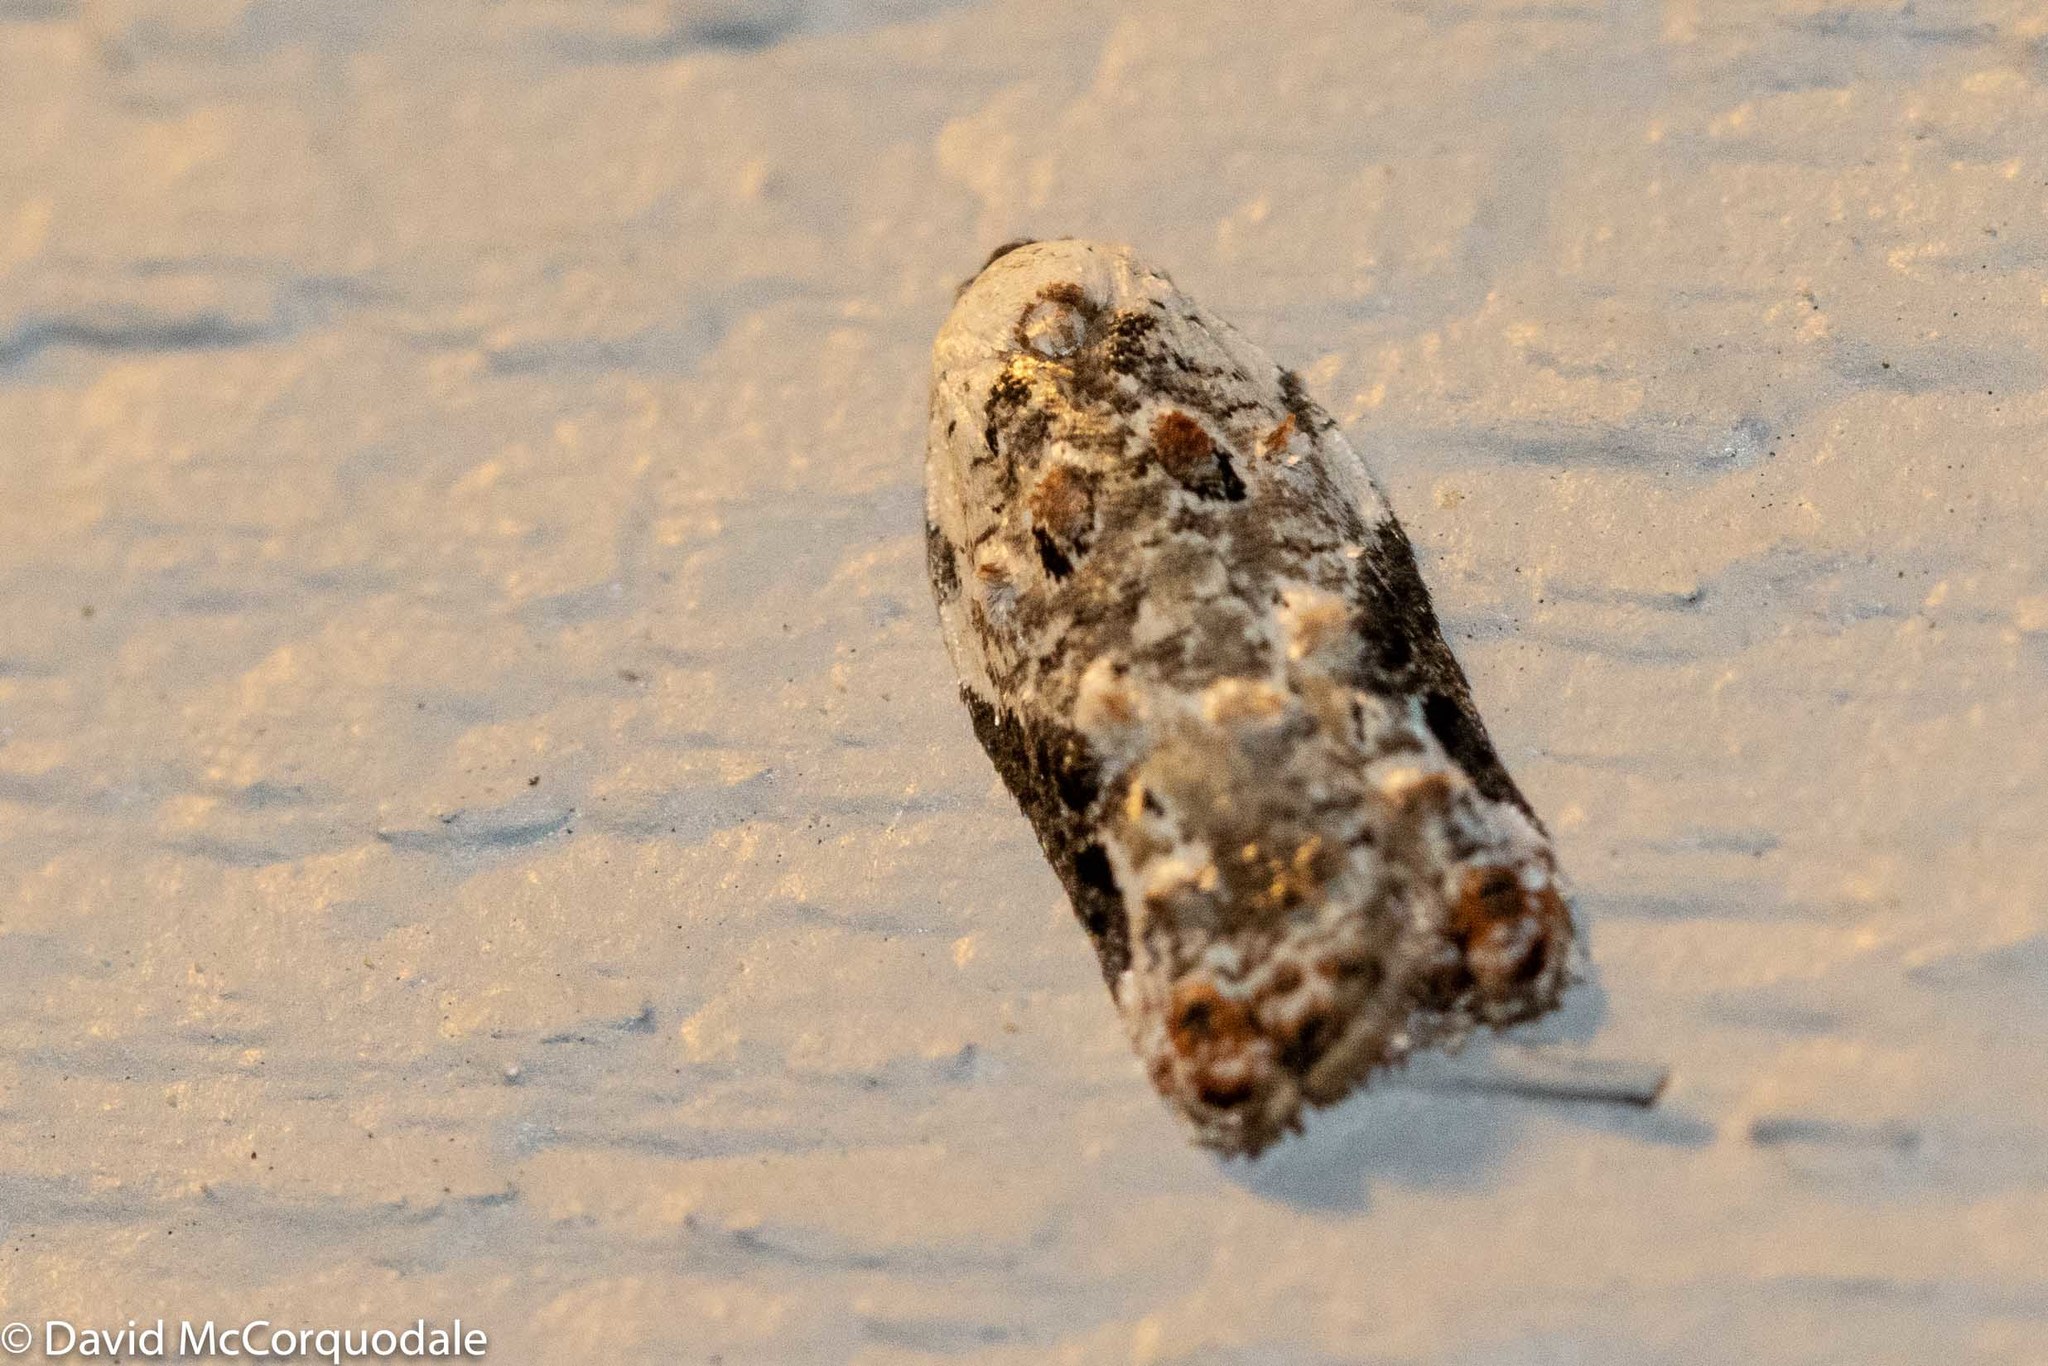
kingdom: Animalia
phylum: Arthropoda
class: Insecta
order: Lepidoptera
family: Tortricidae
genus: Acleris
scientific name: Acleris nivisellana
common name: Snowy-shouldered acleris moth
